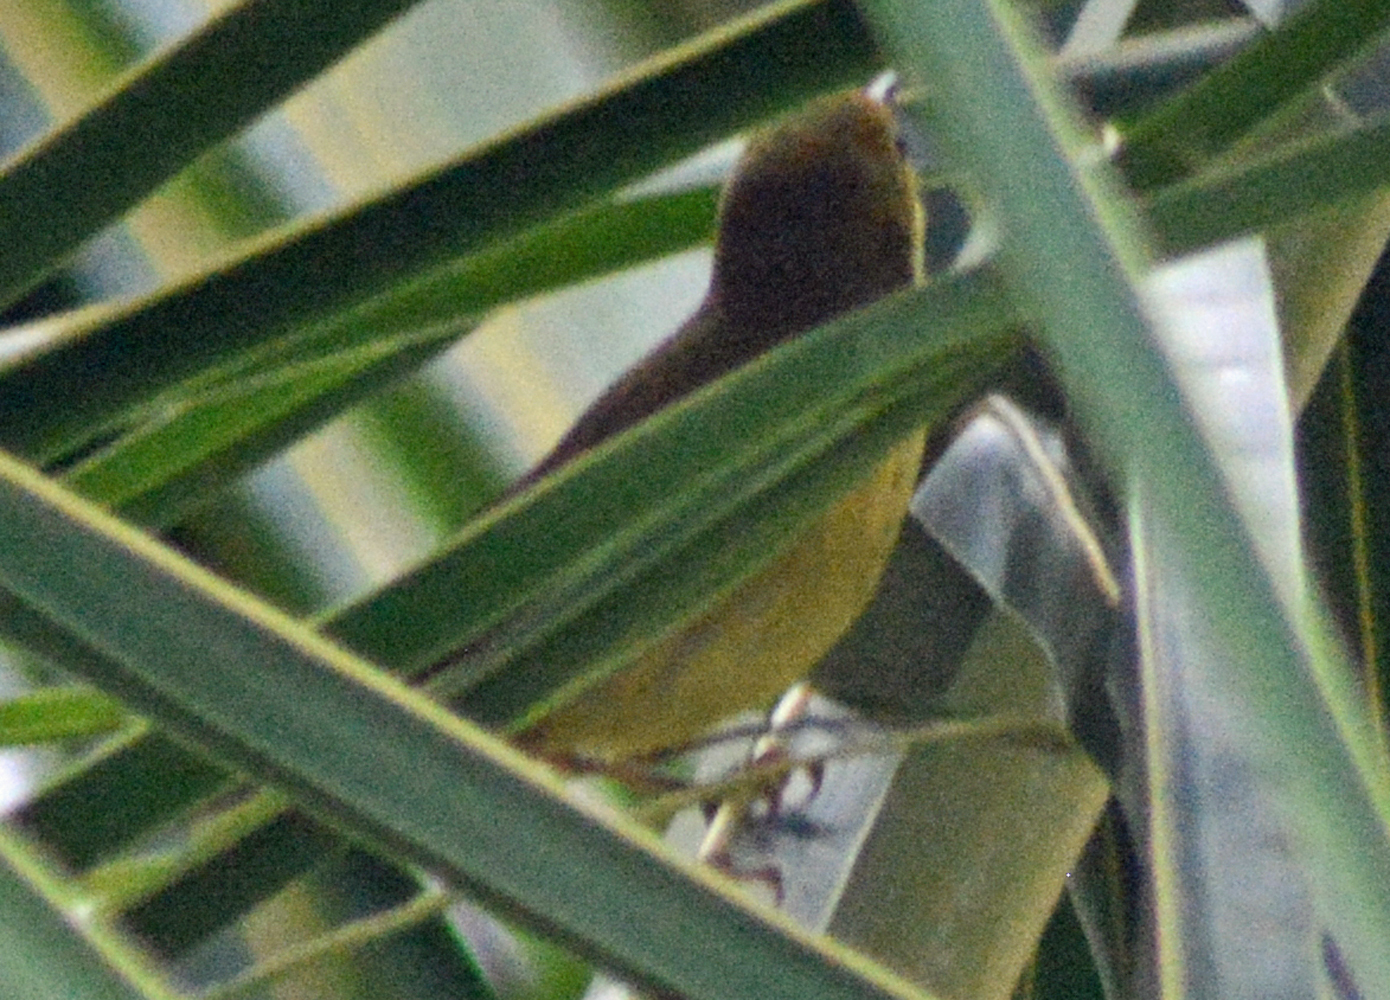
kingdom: Animalia
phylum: Chordata
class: Aves
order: Passeriformes
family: Parulidae
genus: Setophaga
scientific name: Setophaga petechia
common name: Yellow warbler
